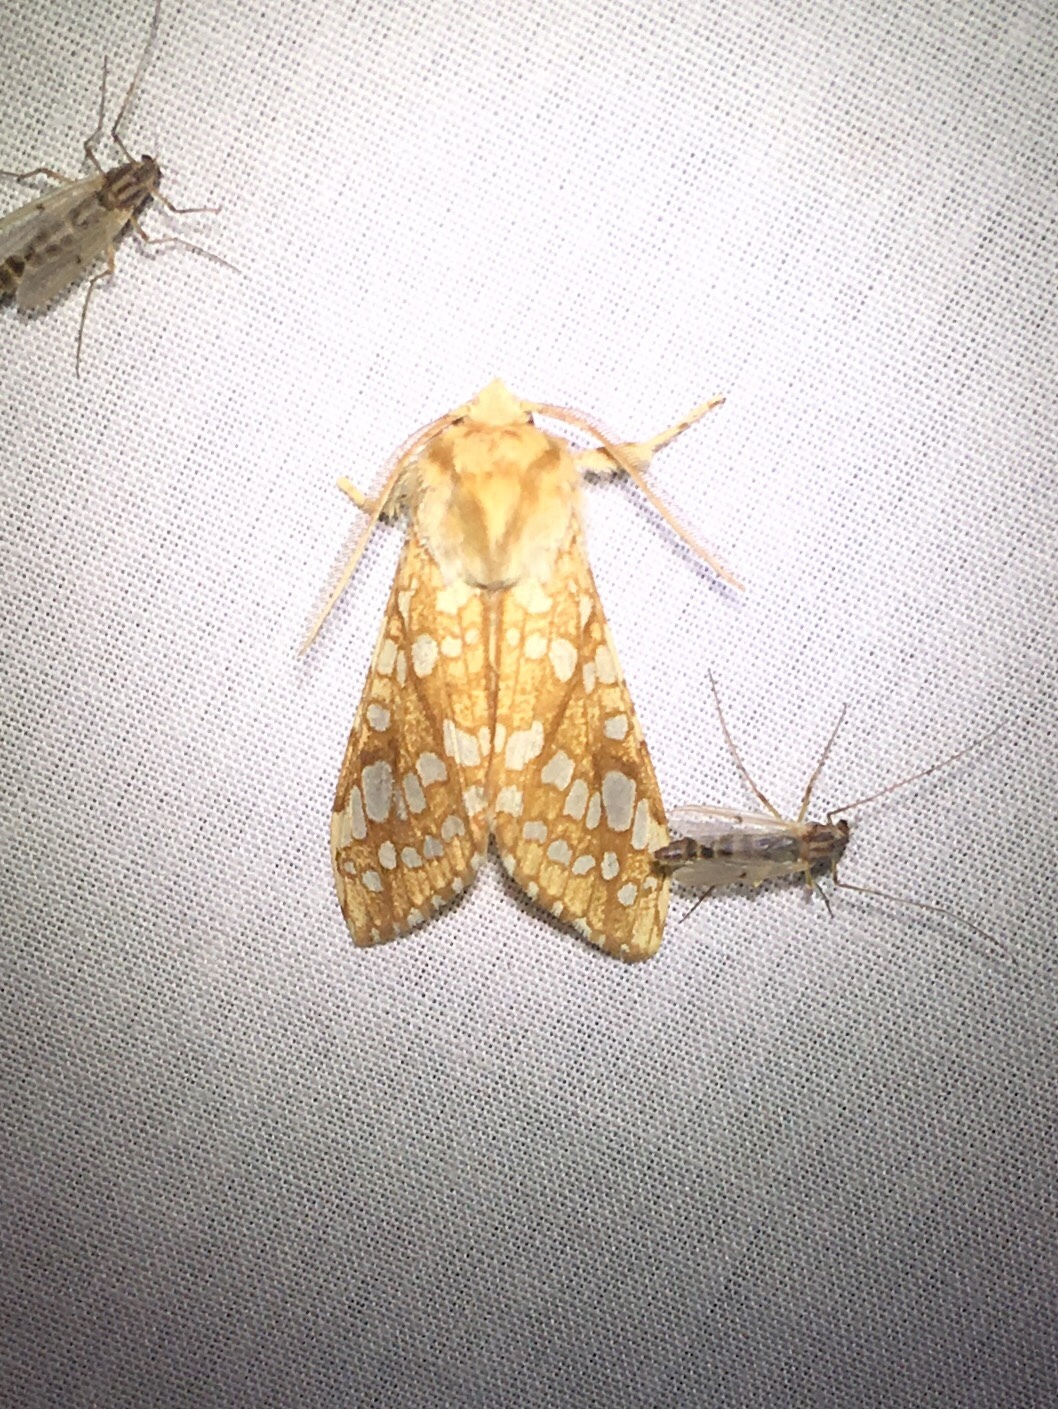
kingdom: Animalia
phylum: Arthropoda
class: Insecta
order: Lepidoptera
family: Erebidae
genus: Lophocampa
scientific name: Lophocampa caryae
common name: Hickory tussock moth
